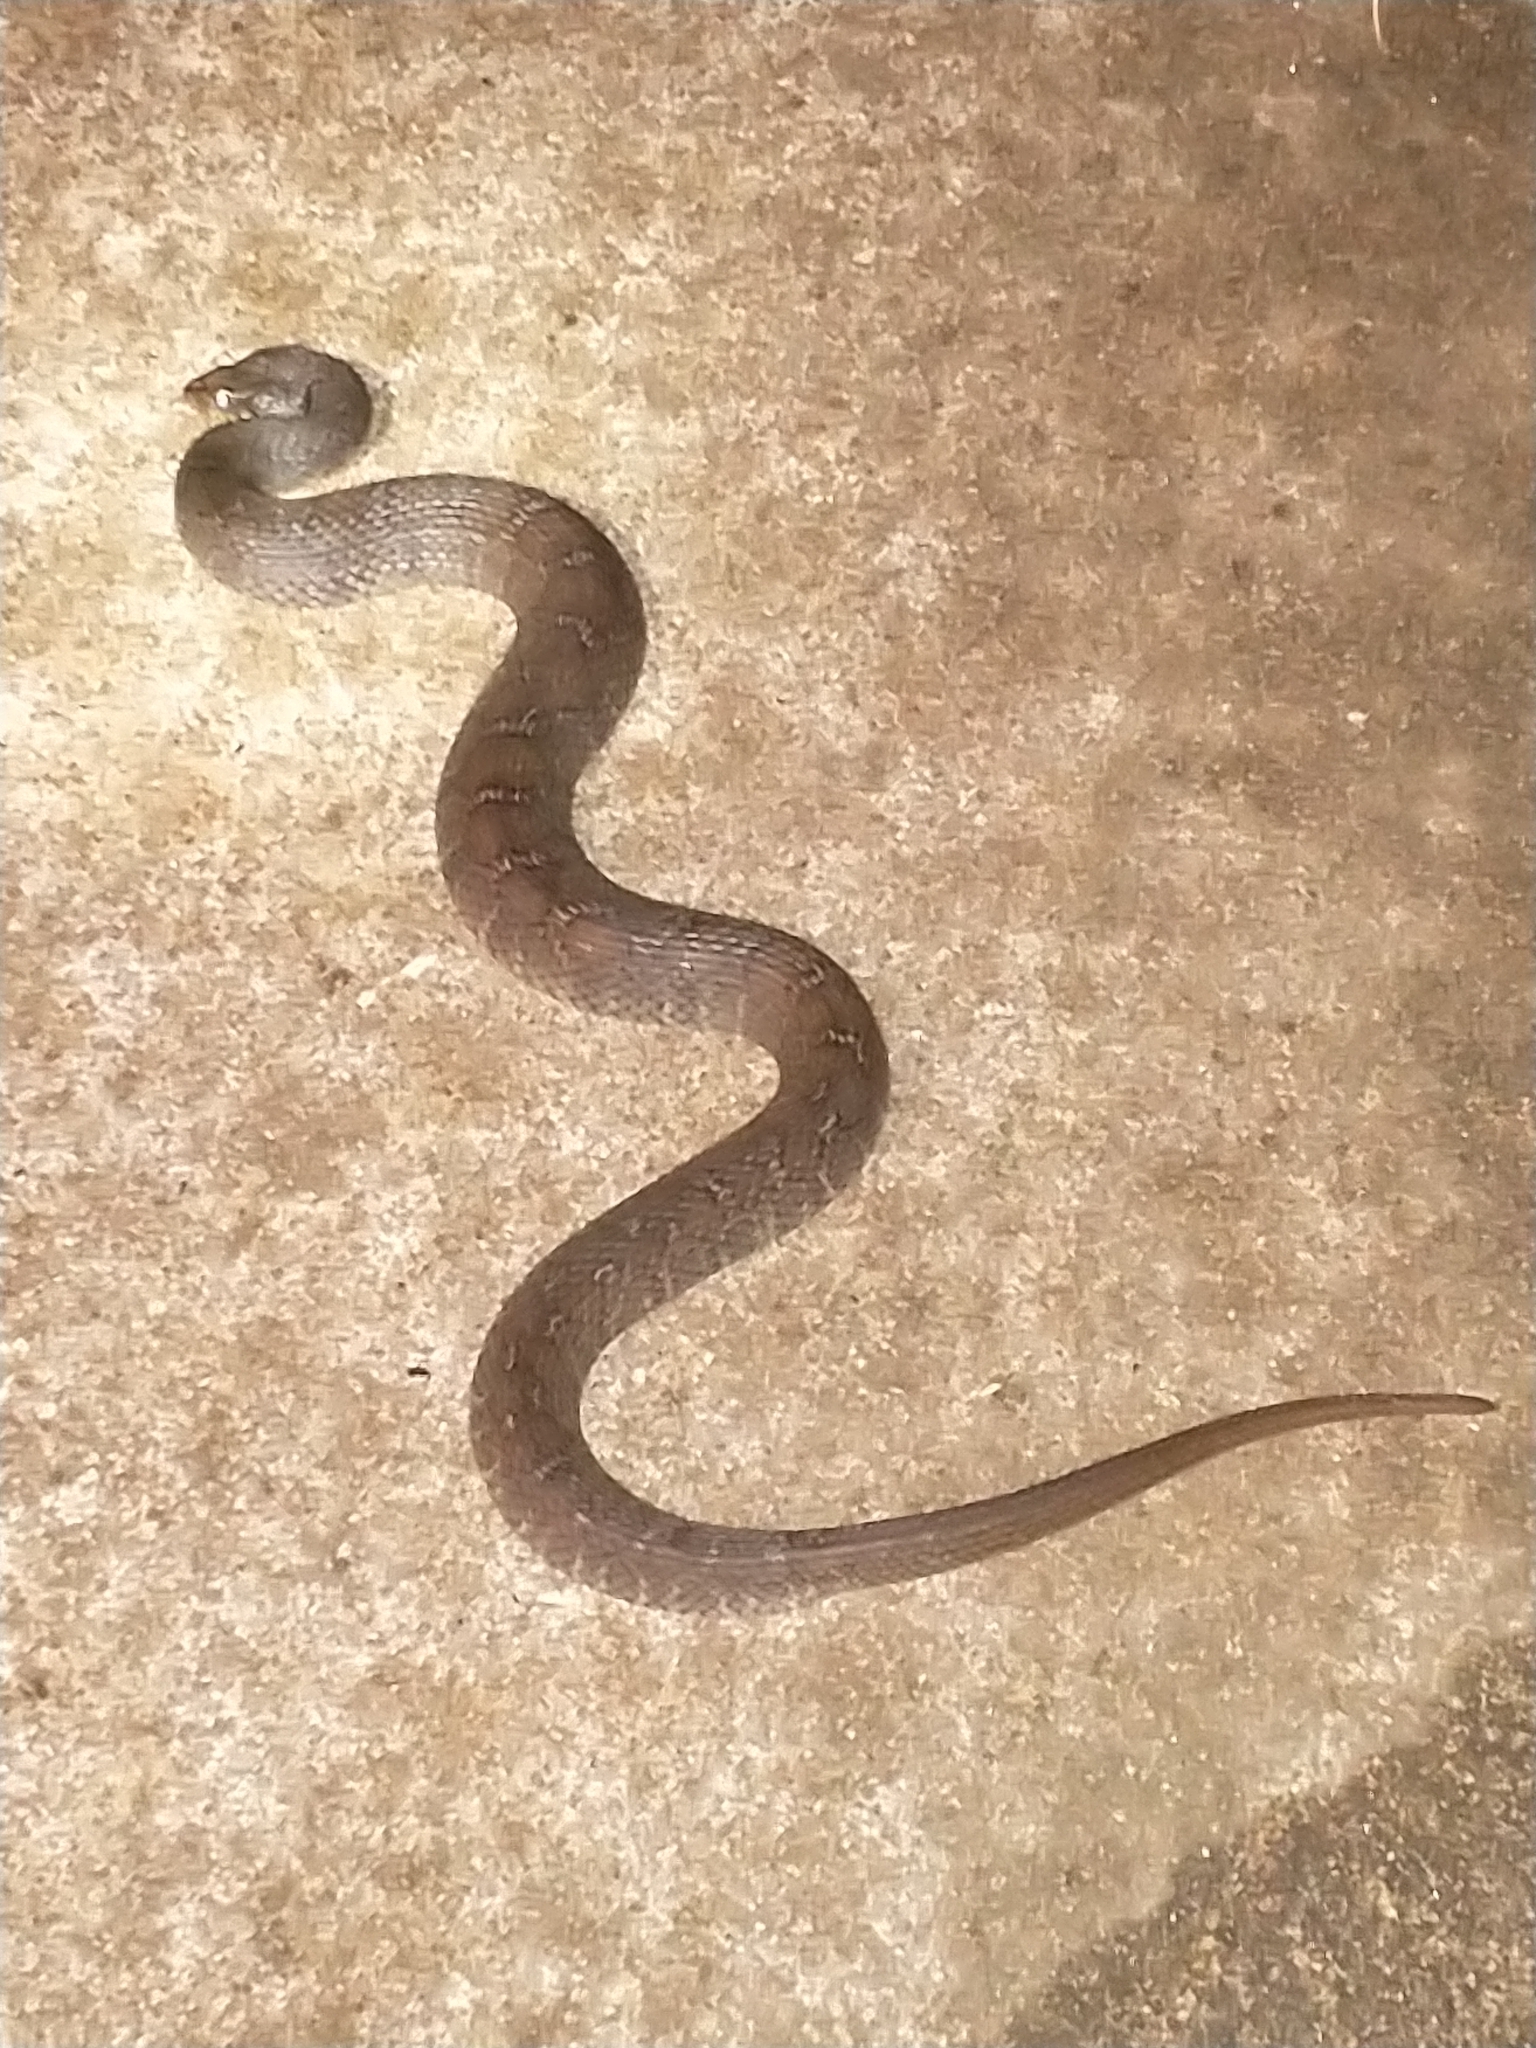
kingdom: Animalia
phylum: Chordata
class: Squamata
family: Colubridae
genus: Nerodia
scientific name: Nerodia erythrogaster
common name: Plainbelly water snake
